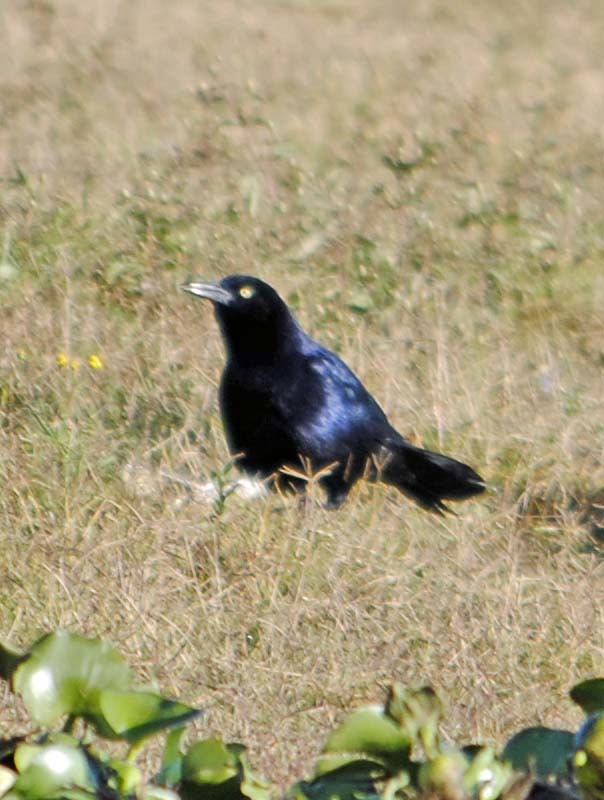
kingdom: Animalia
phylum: Chordata
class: Aves
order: Passeriformes
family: Icteridae
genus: Quiscalus
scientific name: Quiscalus mexicanus
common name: Great-tailed grackle
